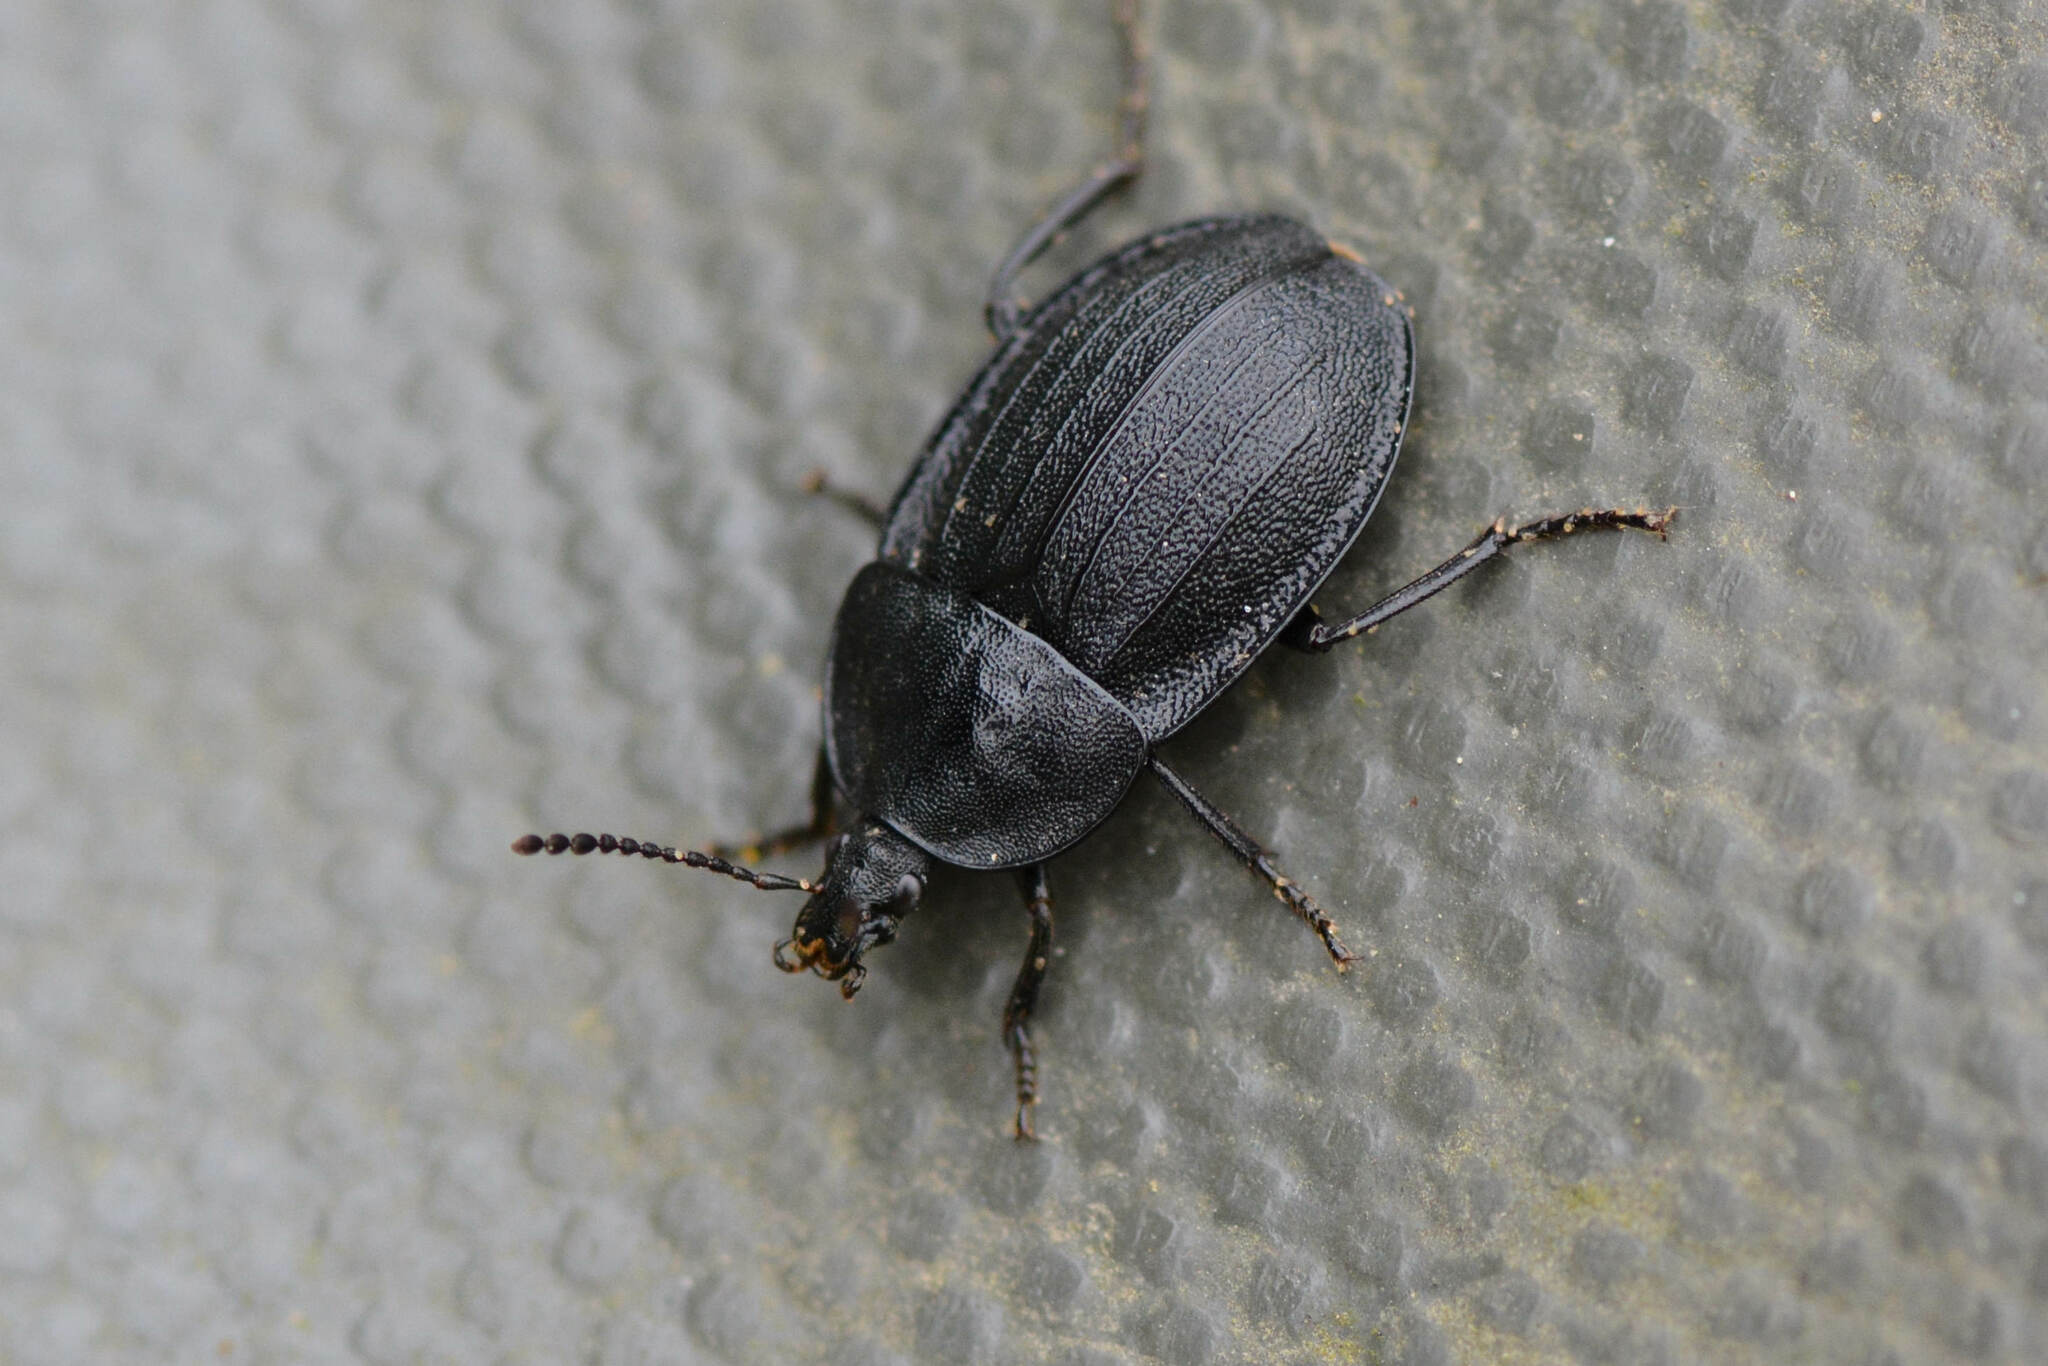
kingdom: Animalia
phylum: Arthropoda
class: Insecta
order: Coleoptera
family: Staphylinidae
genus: Silpha
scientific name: Silpha atrata
